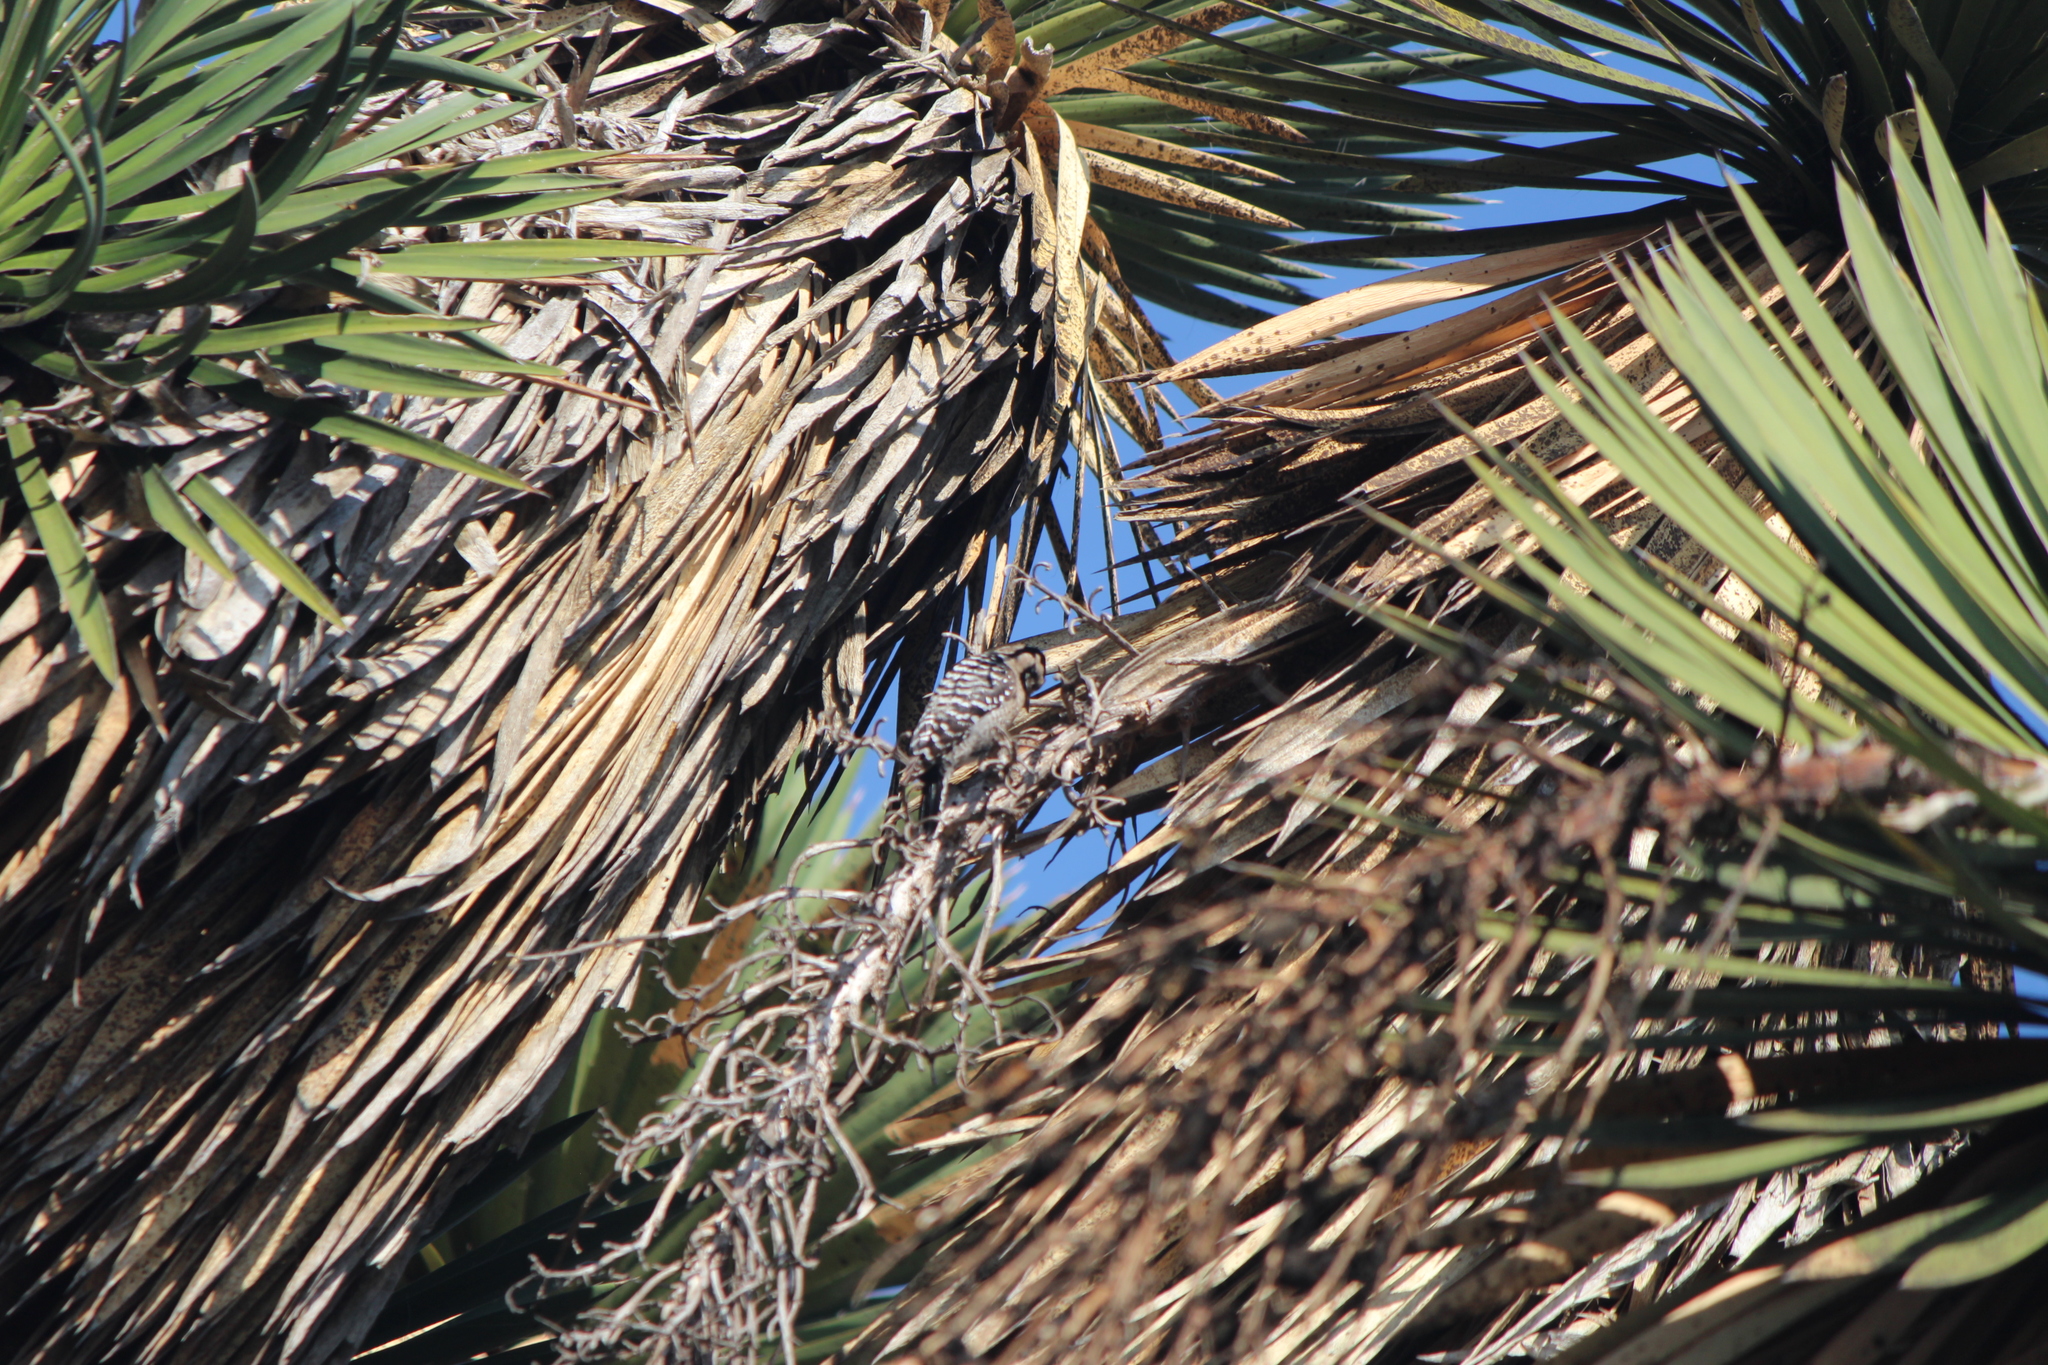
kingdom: Animalia
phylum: Chordata
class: Aves
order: Piciformes
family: Picidae
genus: Dryobates
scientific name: Dryobates scalaris
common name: Ladder-backed woodpecker
